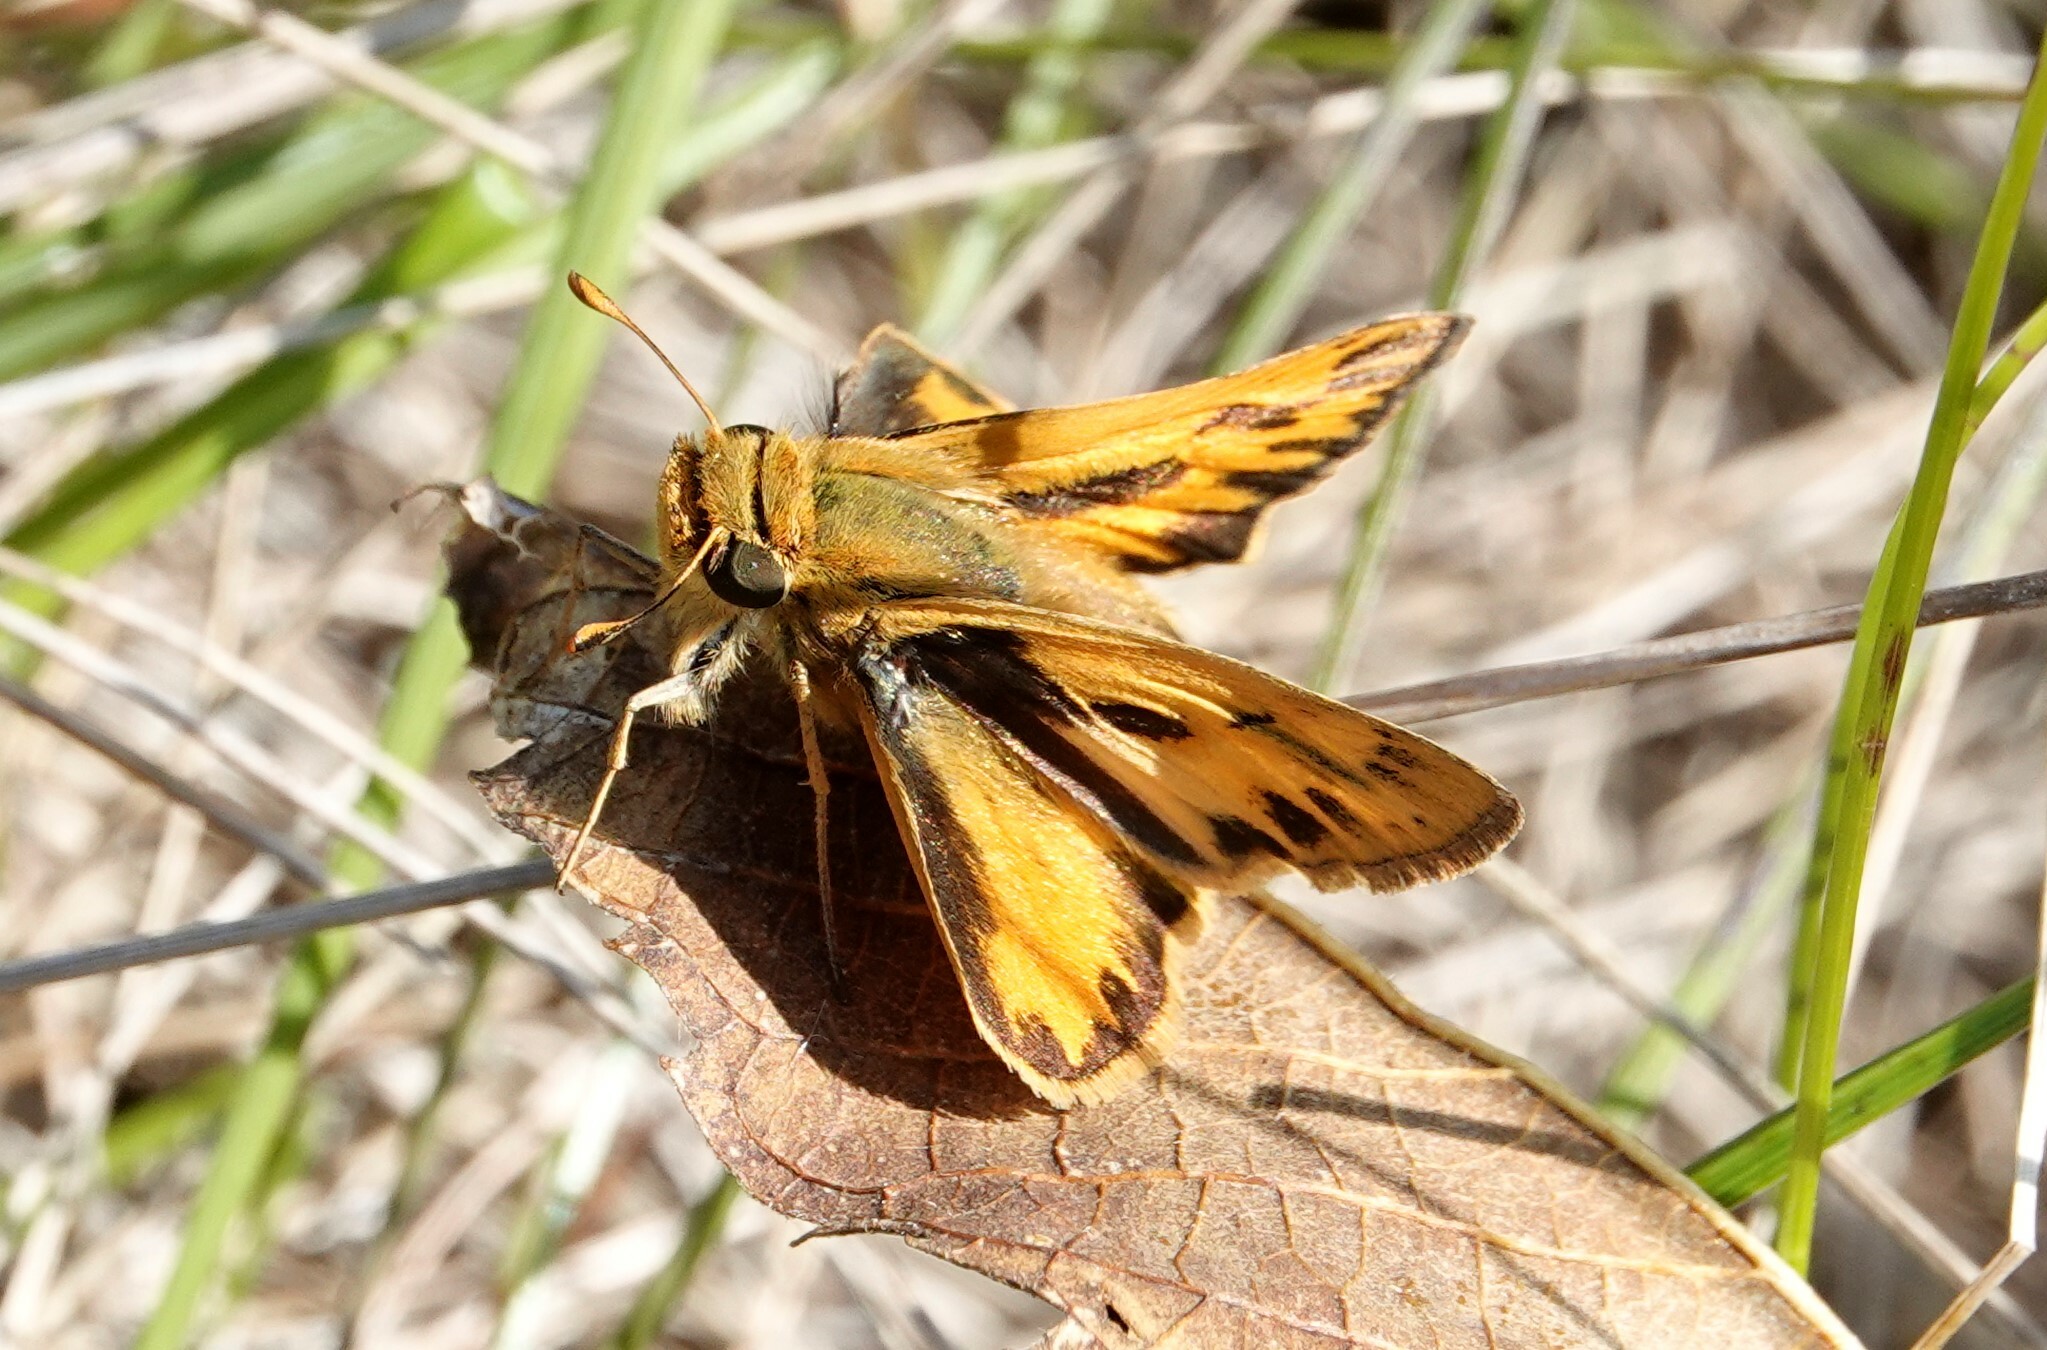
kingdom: Animalia
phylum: Arthropoda
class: Insecta
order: Lepidoptera
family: Hesperiidae
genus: Hylephila
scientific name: Hylephila phyleus
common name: Fiery skipper
